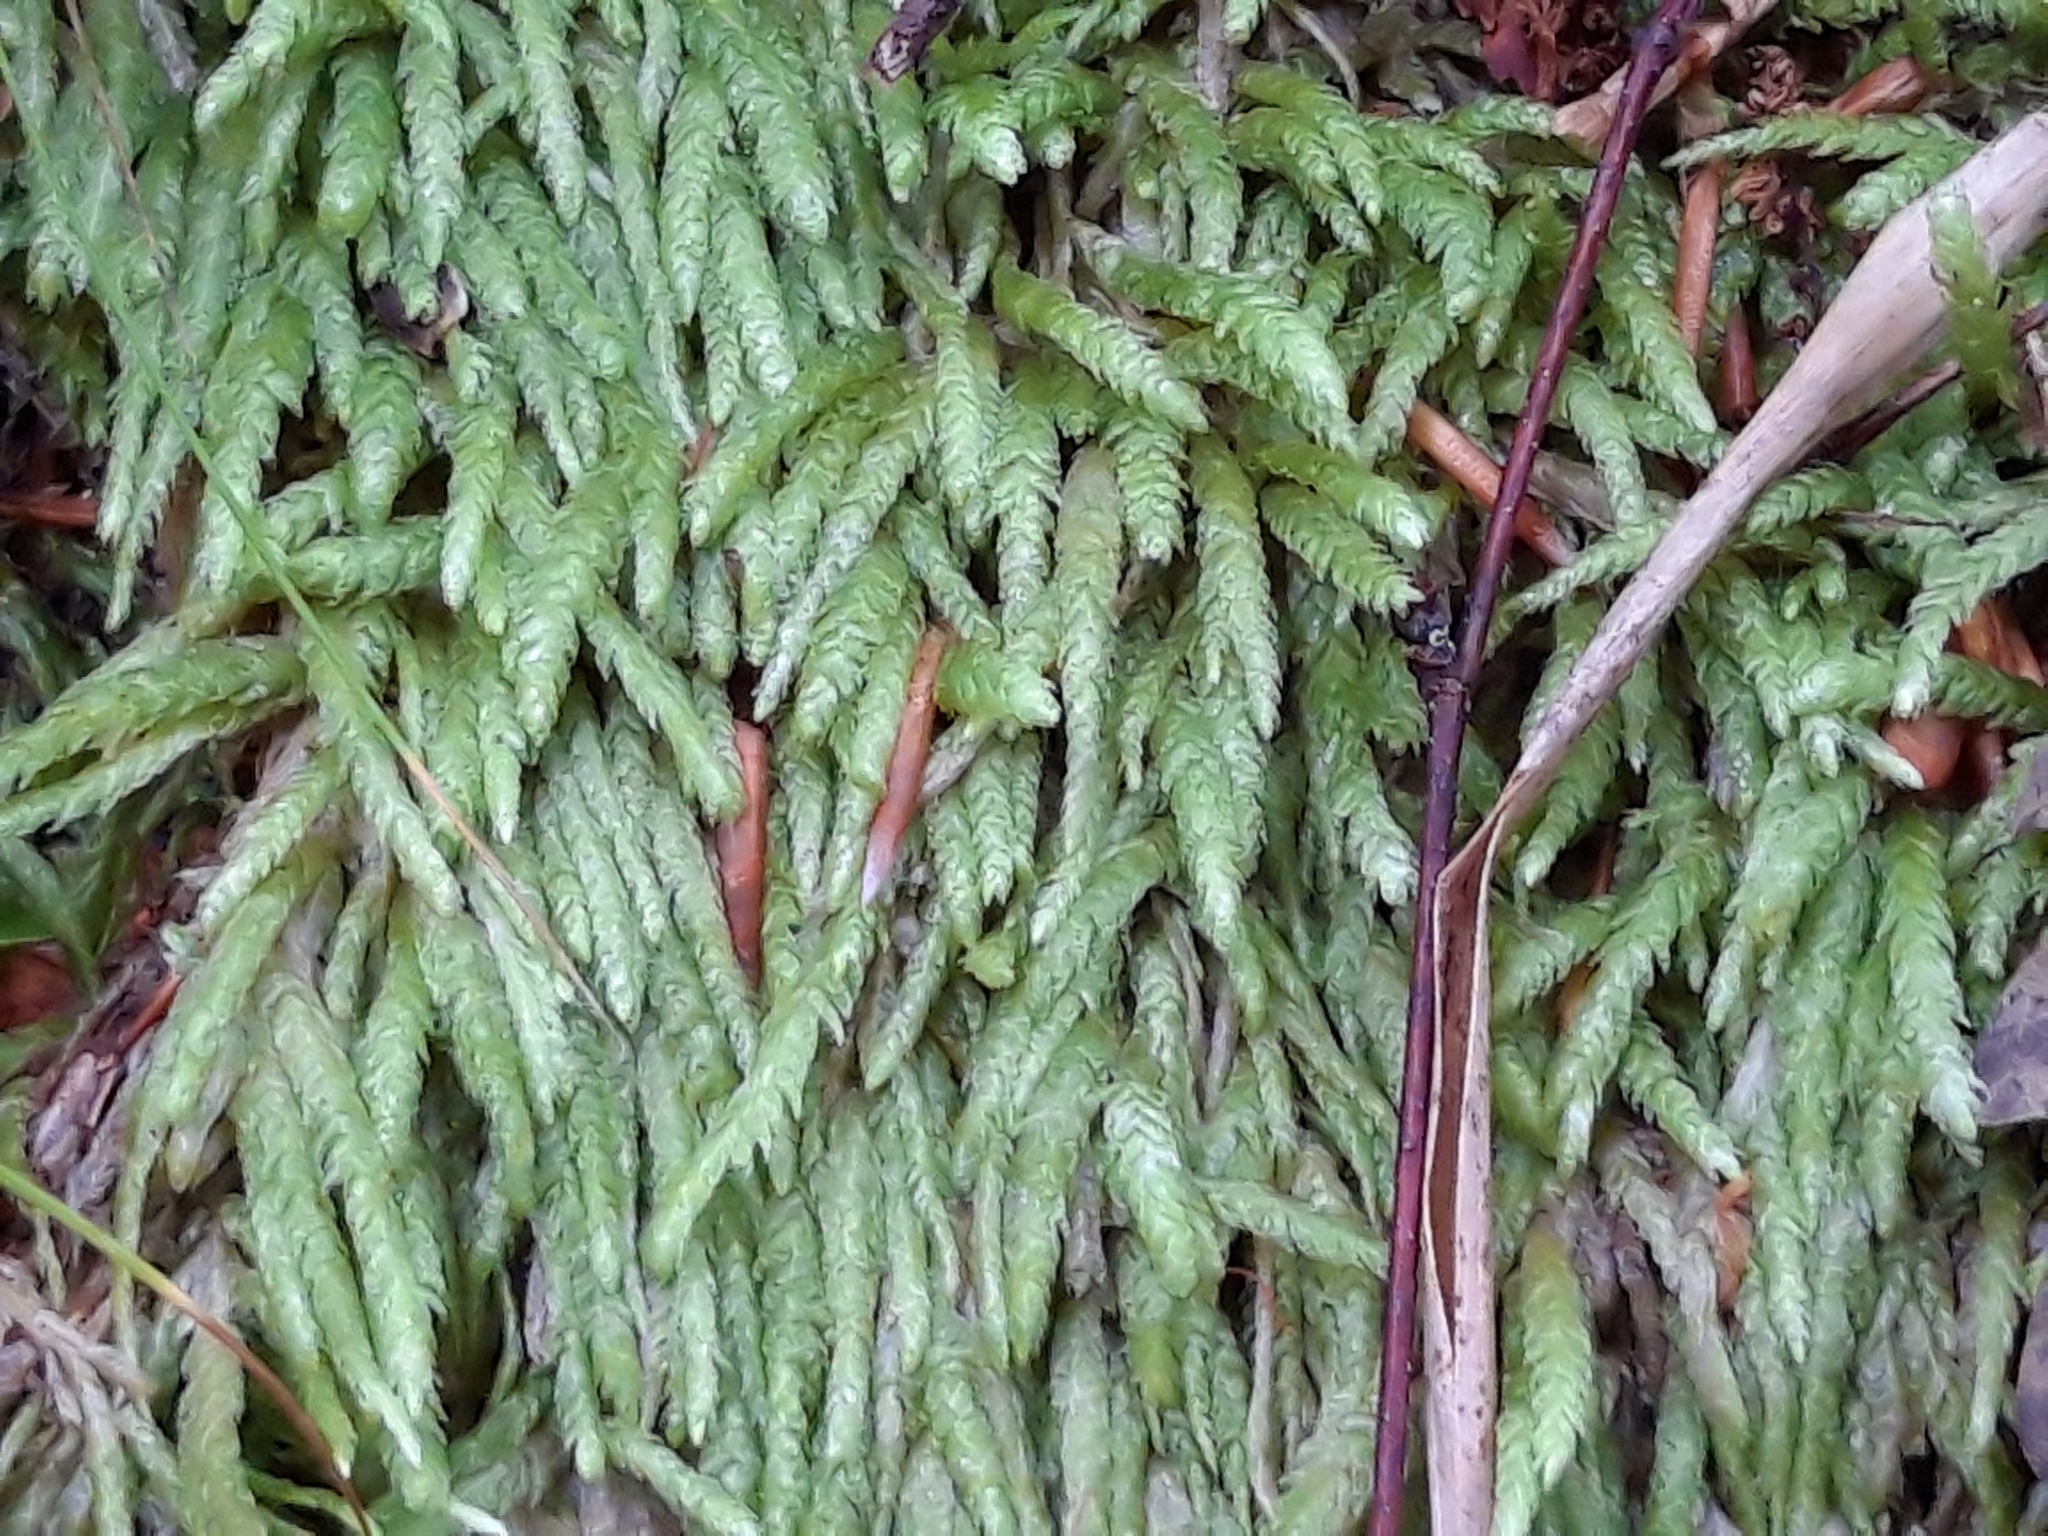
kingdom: Plantae
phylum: Bryophyta
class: Bryopsida
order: Hypnales
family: Plagiotheciaceae
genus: Plagiothecium
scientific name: Plagiothecium undulatum
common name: Waved silk-moss
